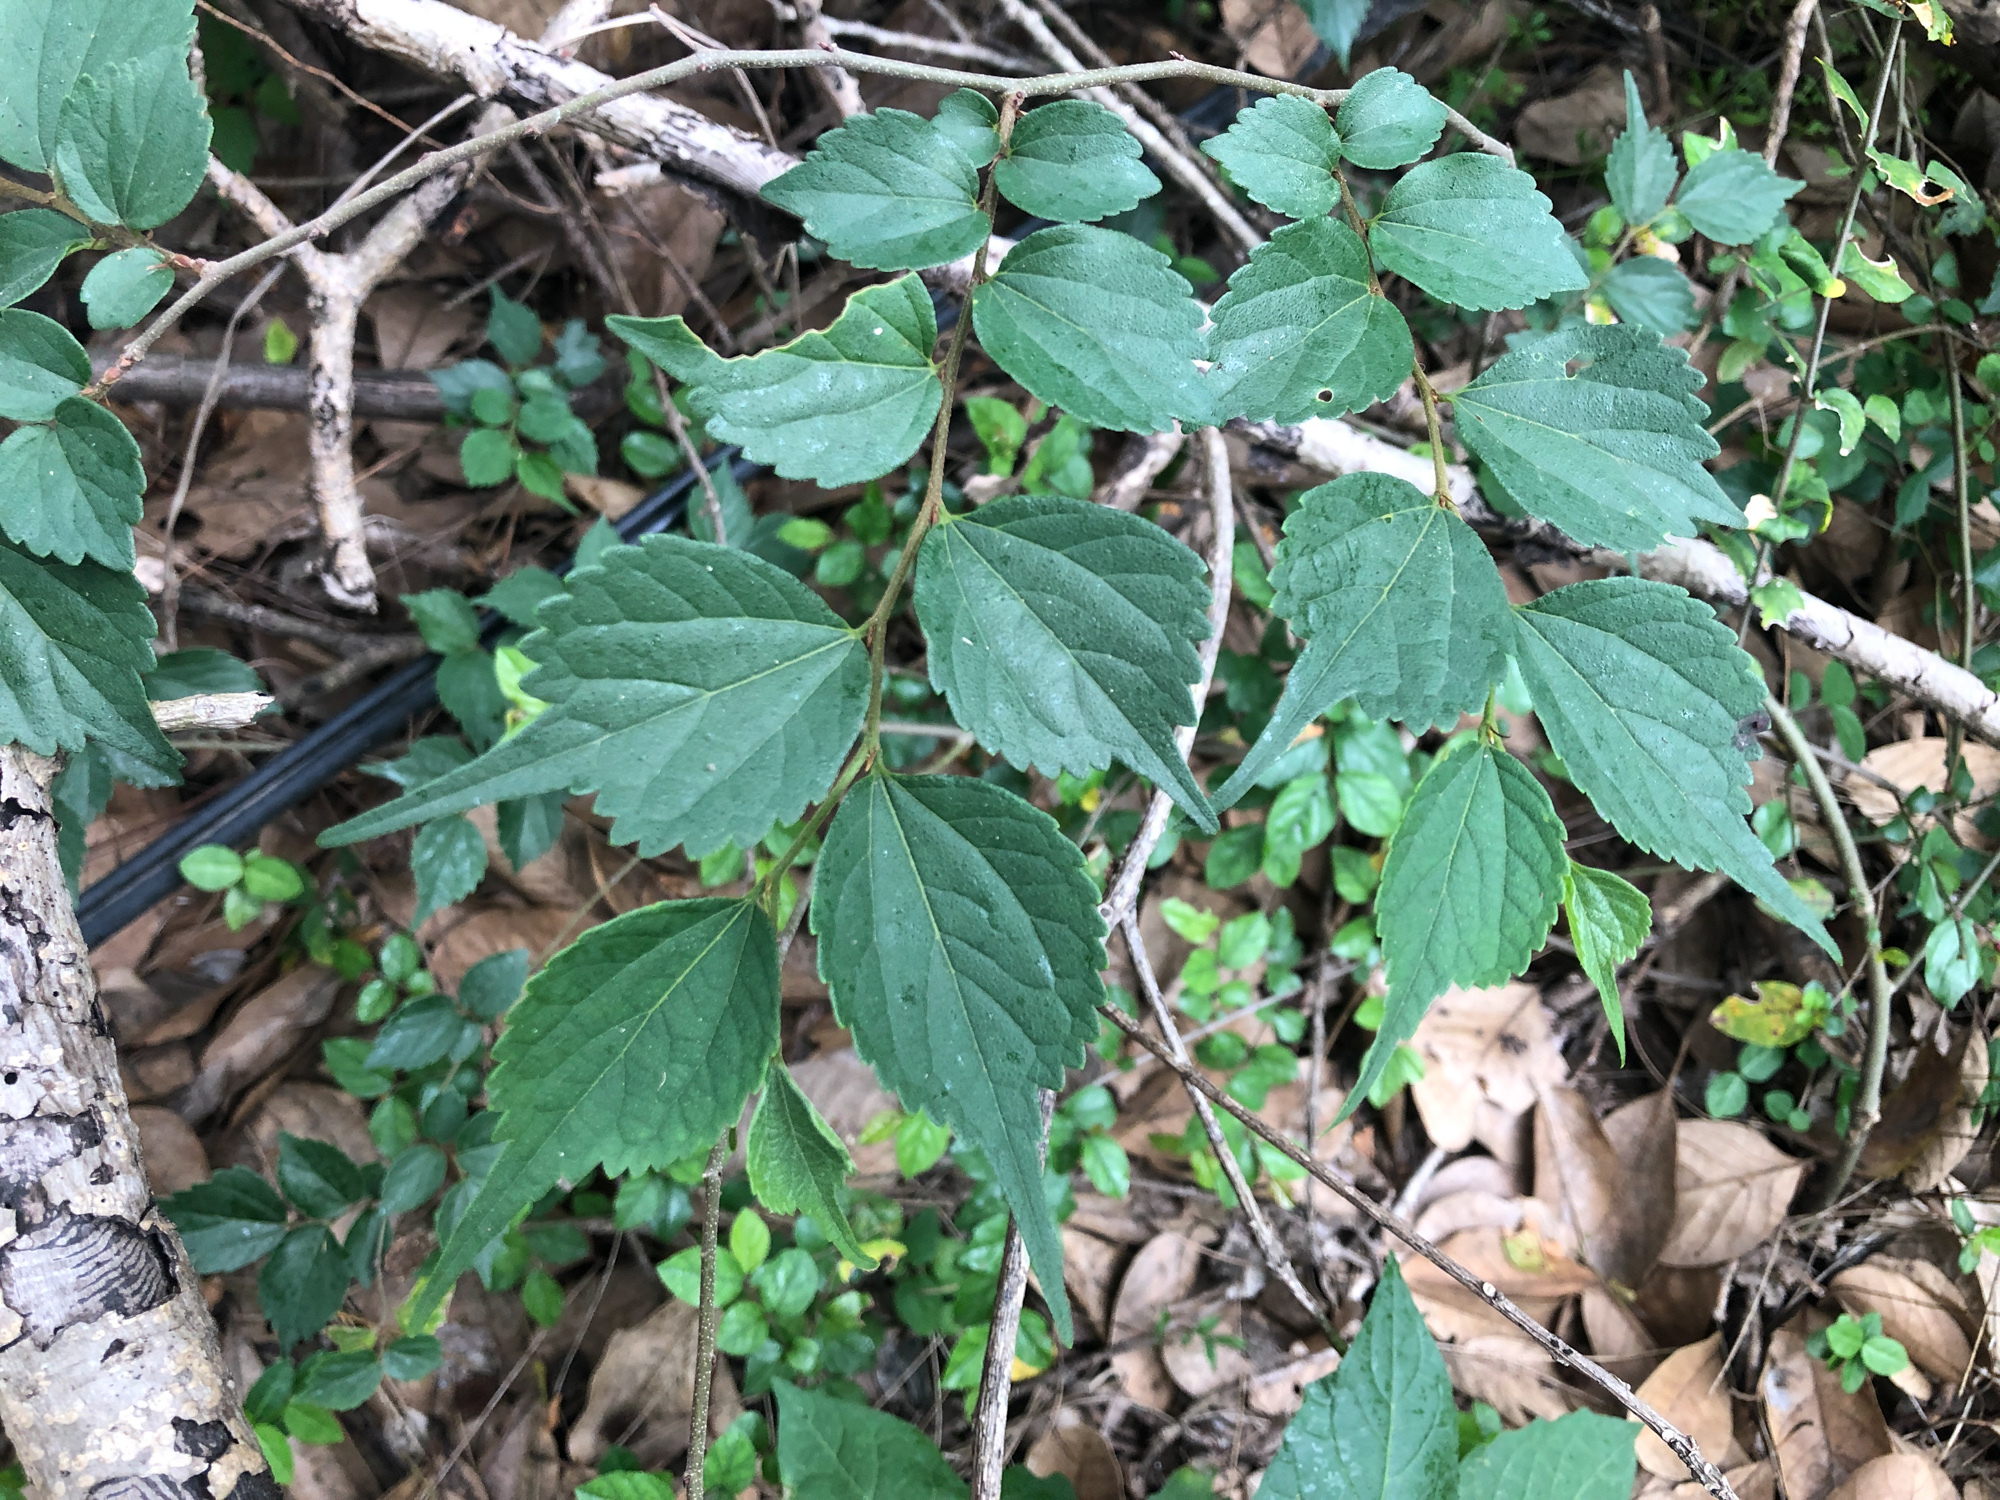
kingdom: Plantae
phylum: Tracheophyta
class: Magnoliopsida
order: Rosales
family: Cannabaceae
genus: Celtis
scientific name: Celtis biondii
